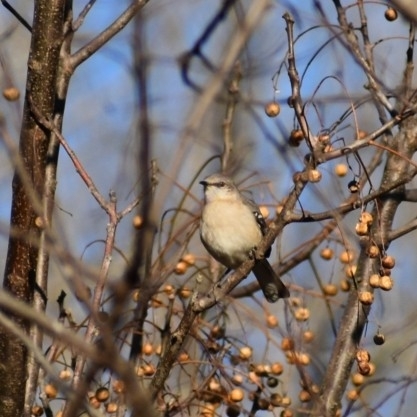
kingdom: Animalia
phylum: Chordata
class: Aves
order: Passeriformes
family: Mimidae
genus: Mimus
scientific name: Mimus polyglottos
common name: Northern mockingbird
